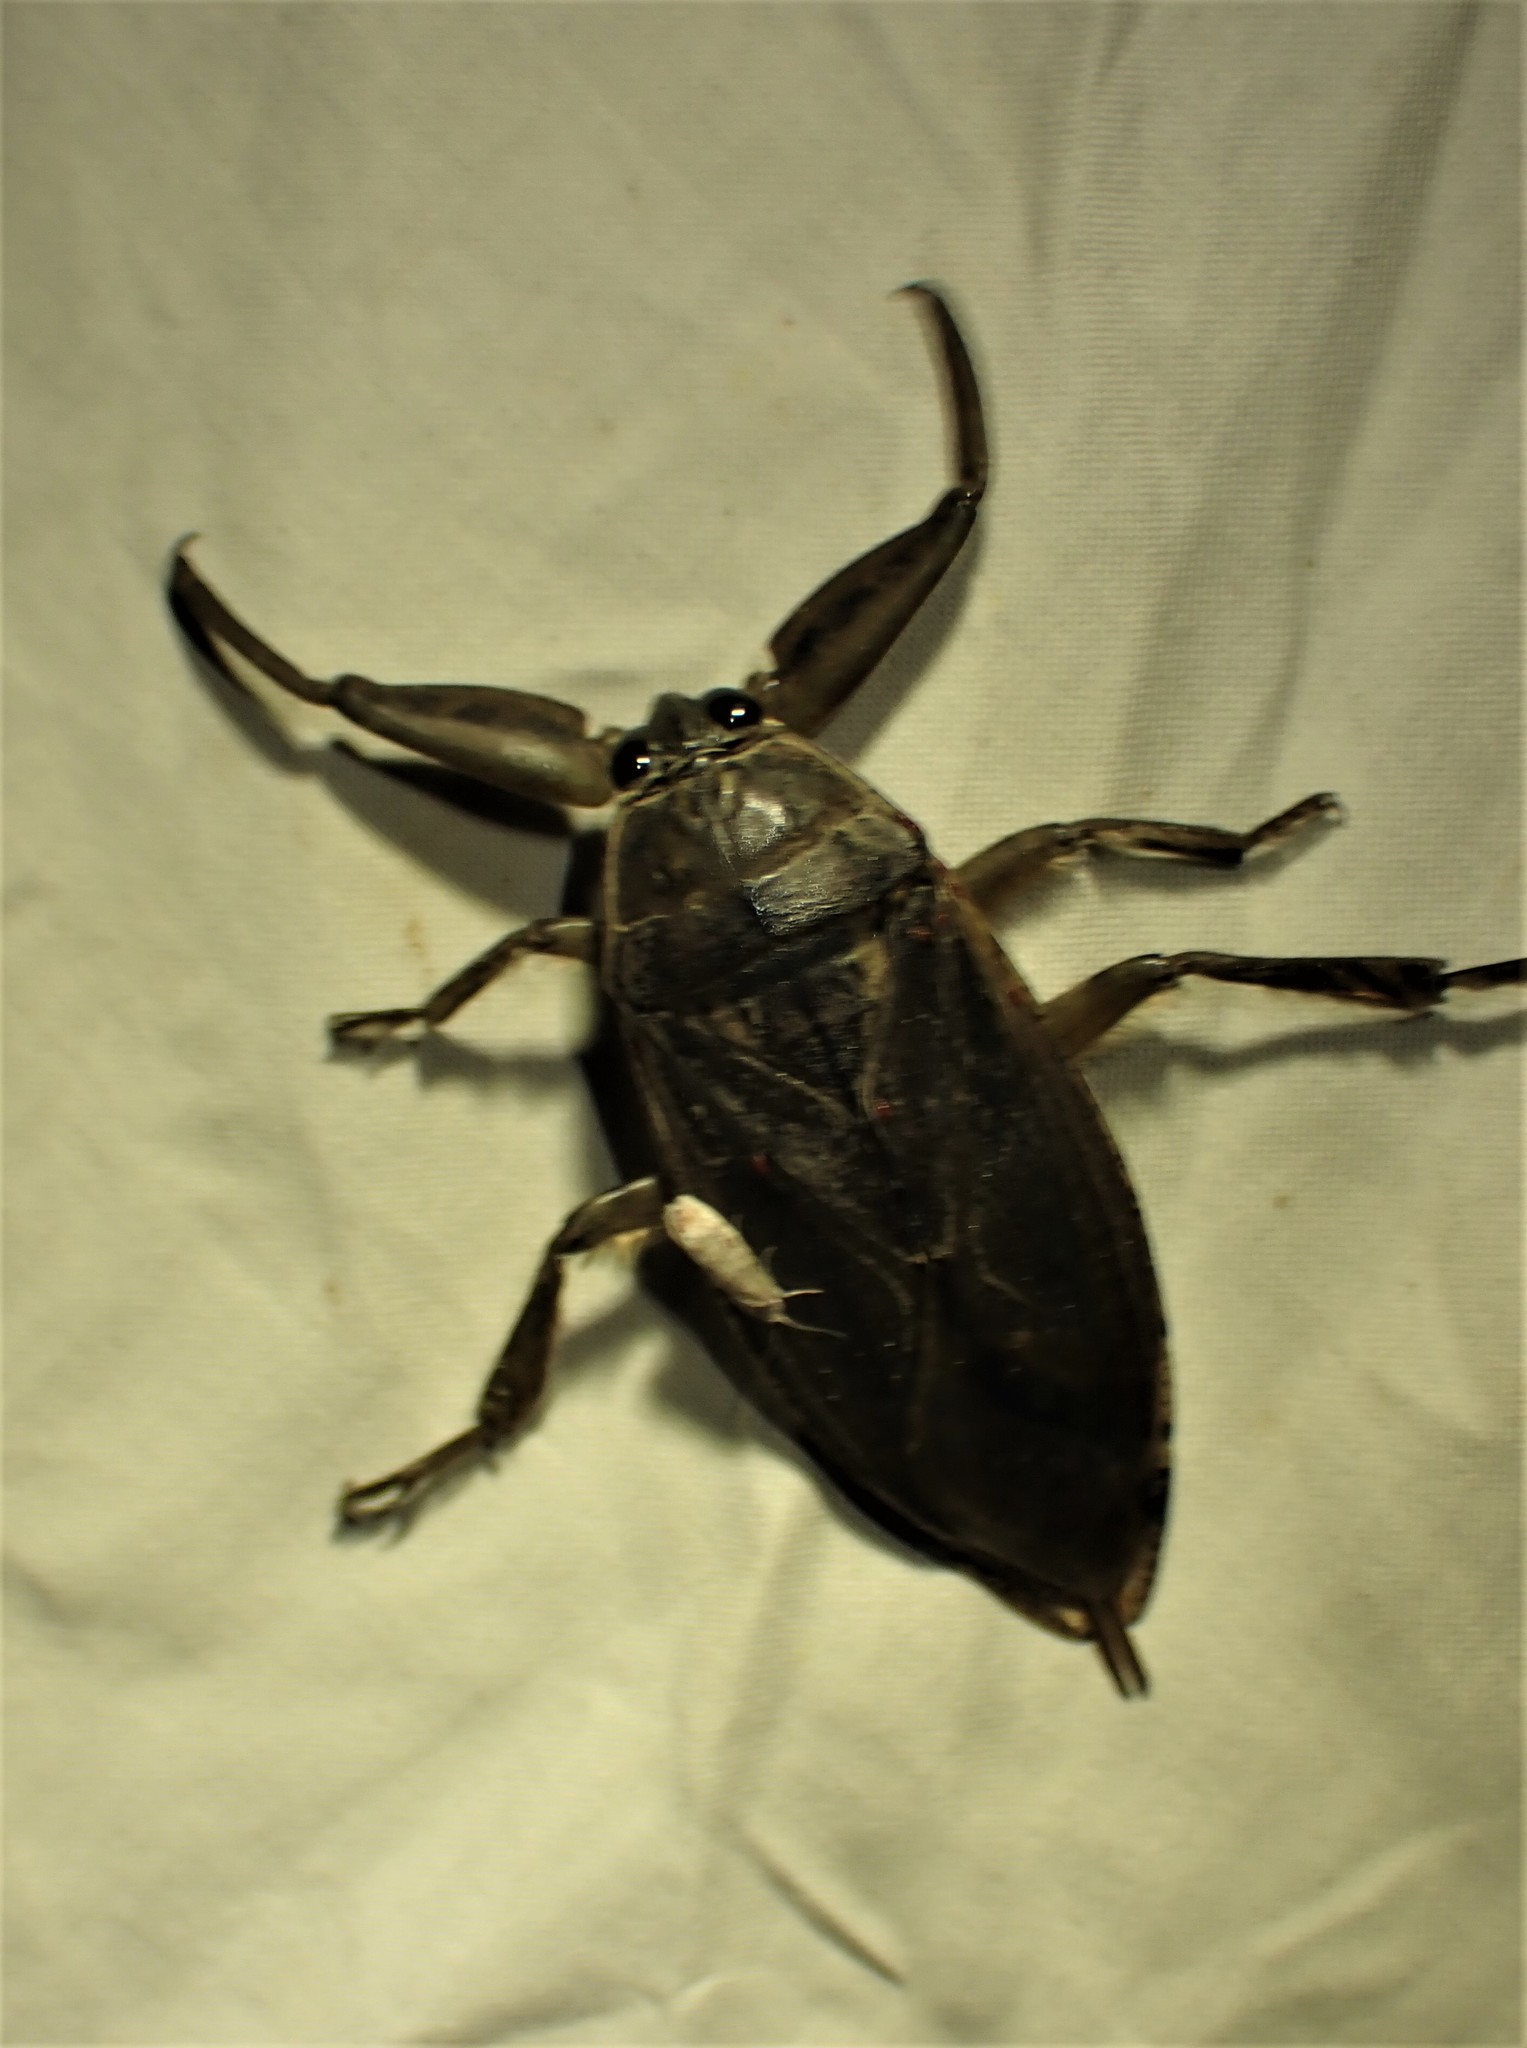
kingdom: Animalia
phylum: Arthropoda
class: Insecta
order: Hemiptera
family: Belostomatidae
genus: Lethocerus
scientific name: Lethocerus americanus
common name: Giant water bug
